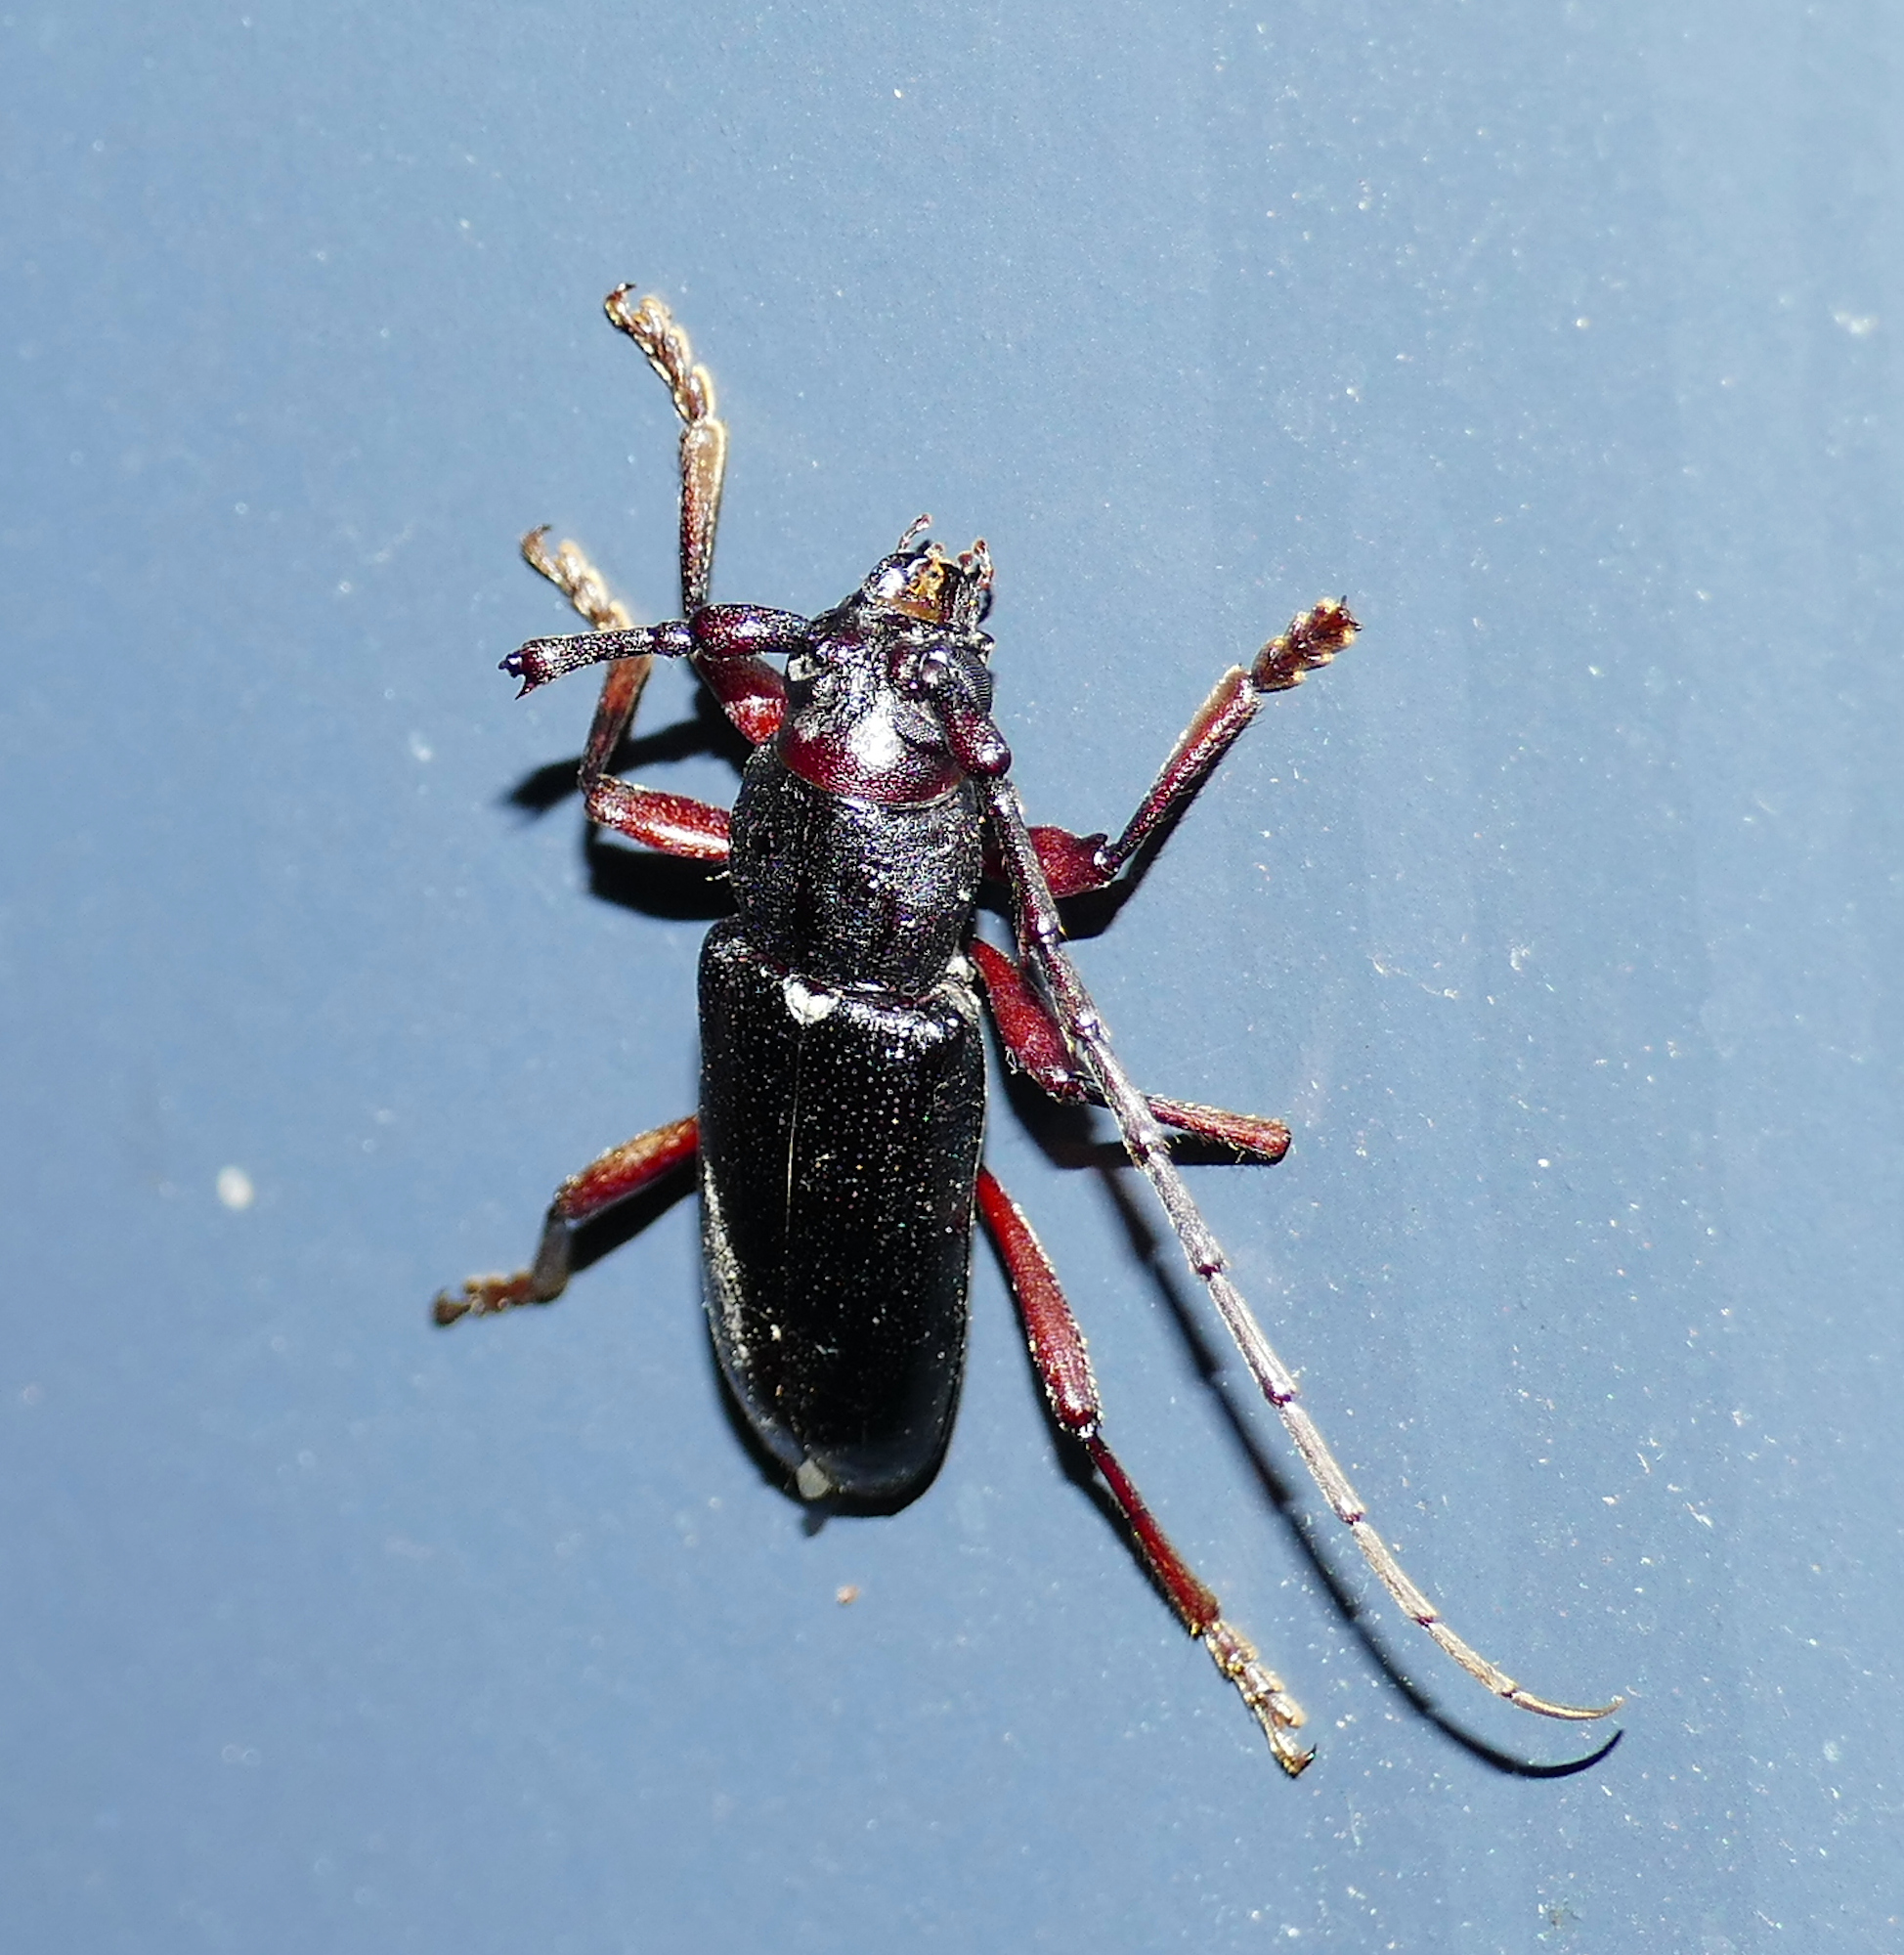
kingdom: Animalia
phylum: Arthropoda
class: Insecta
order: Coleoptera
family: Cerambycidae
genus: Enaphalodes
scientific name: Enaphalodes seminitidus
